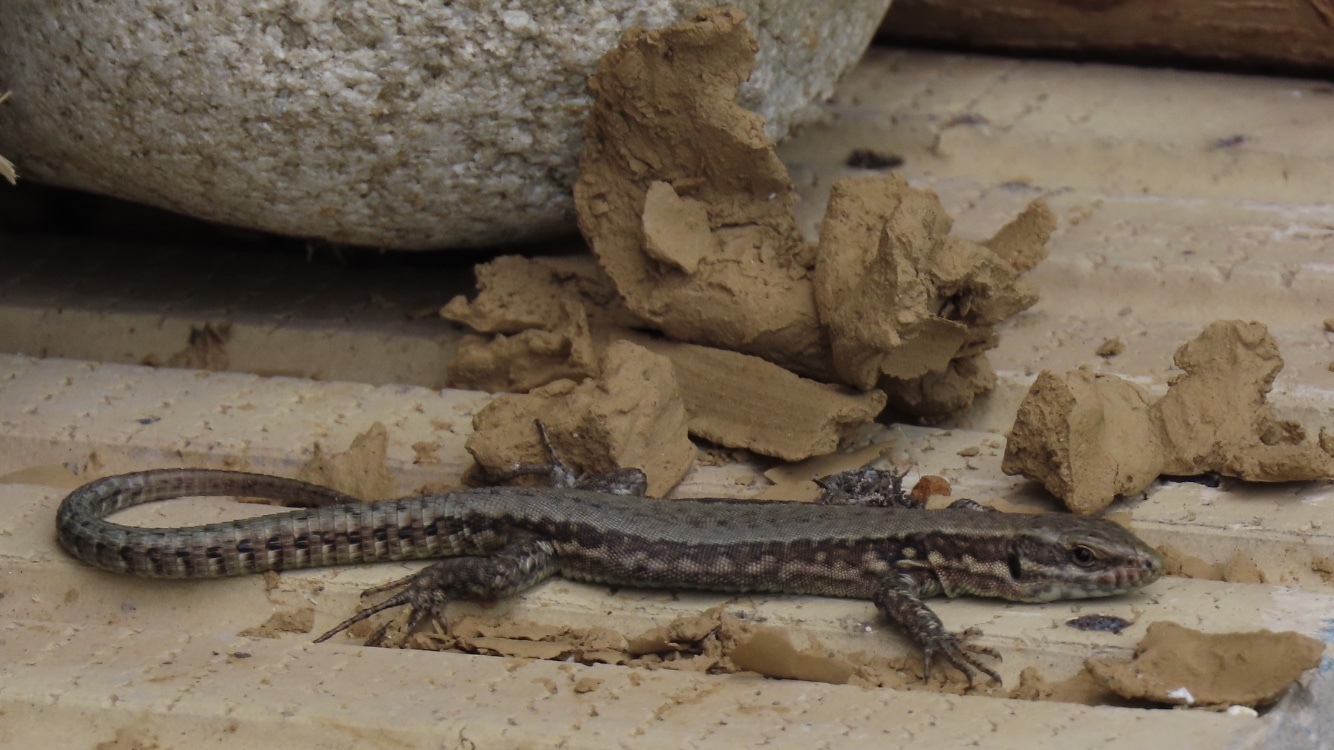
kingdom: Animalia
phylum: Chordata
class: Squamata
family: Lacertidae
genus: Podarcis
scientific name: Podarcis muralis
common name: Common wall lizard
